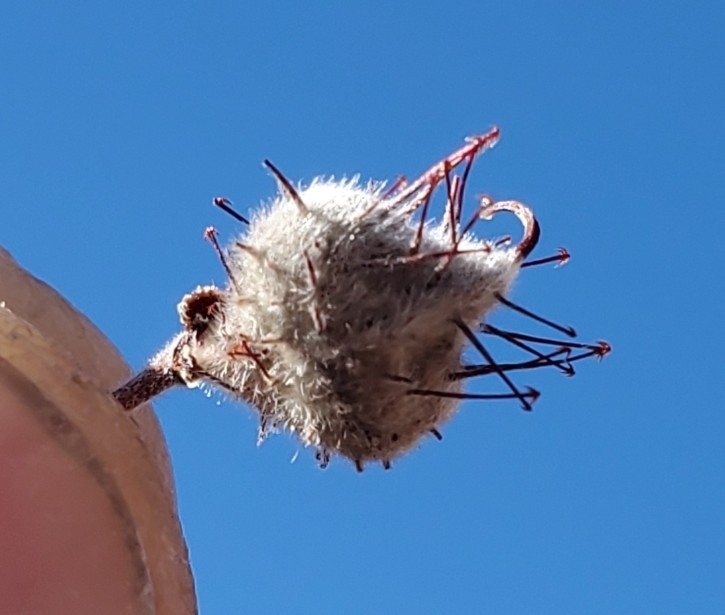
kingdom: Plantae
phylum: Tracheophyta
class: Magnoliopsida
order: Zygophyllales
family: Krameriaceae
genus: Krameria
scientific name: Krameria bicolor
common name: White ratany
